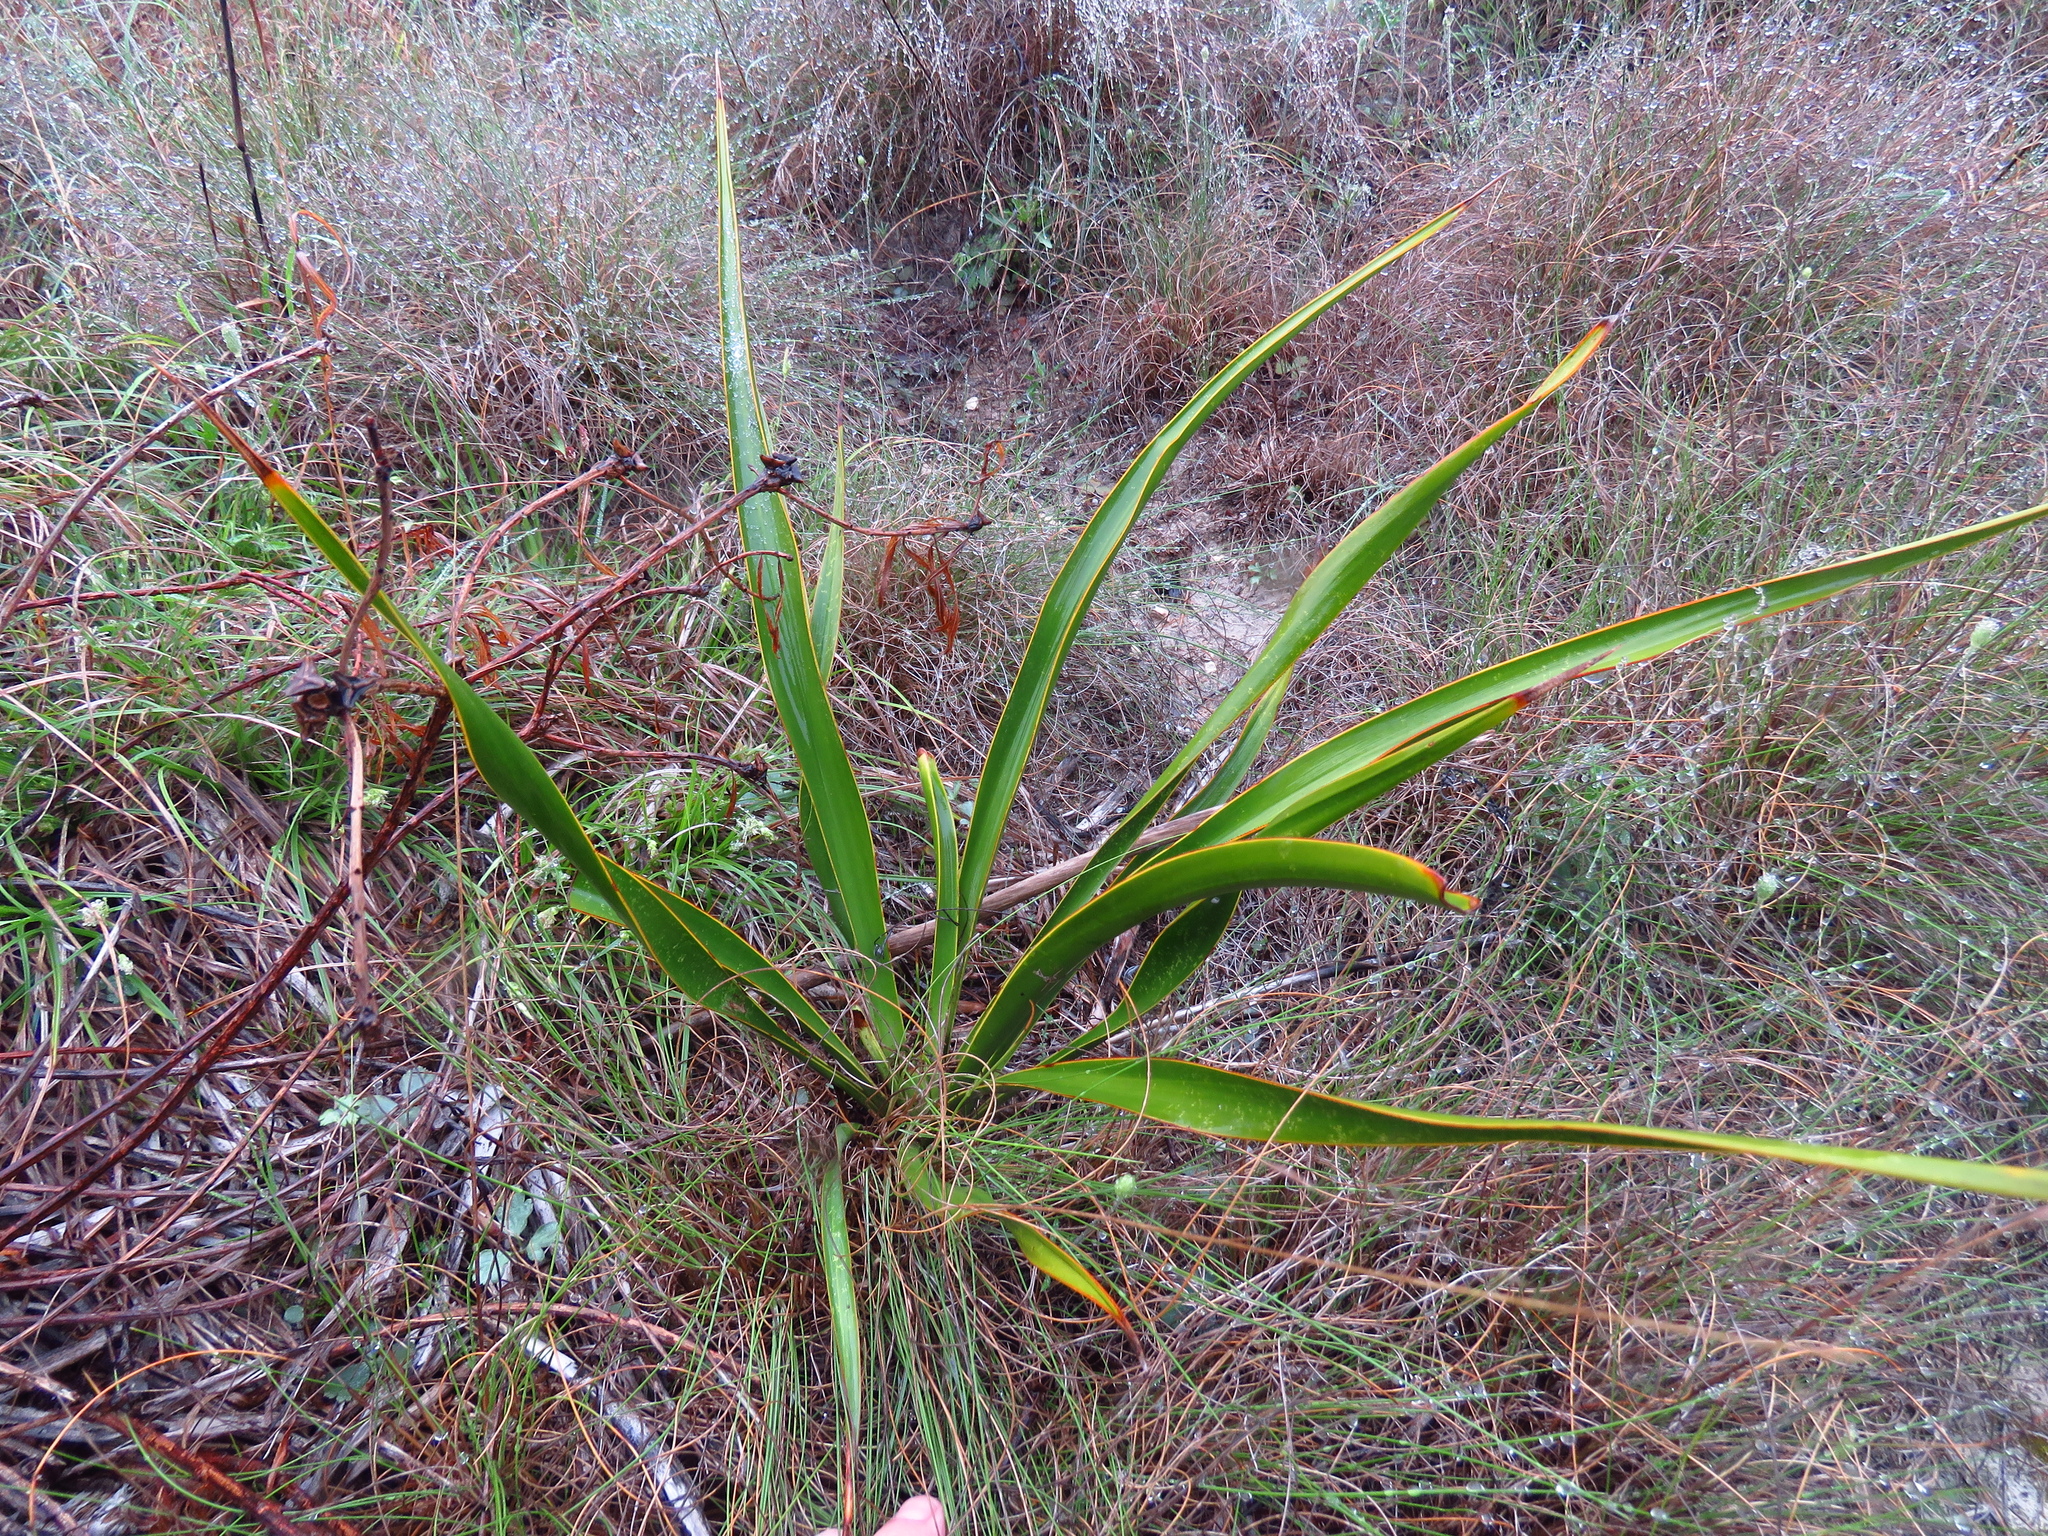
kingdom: Plantae
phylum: Tracheophyta
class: Liliopsida
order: Asparagales
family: Asparagaceae
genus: Yucca
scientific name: Yucca rupicola
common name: Twisted-leaf spanish-dagger
